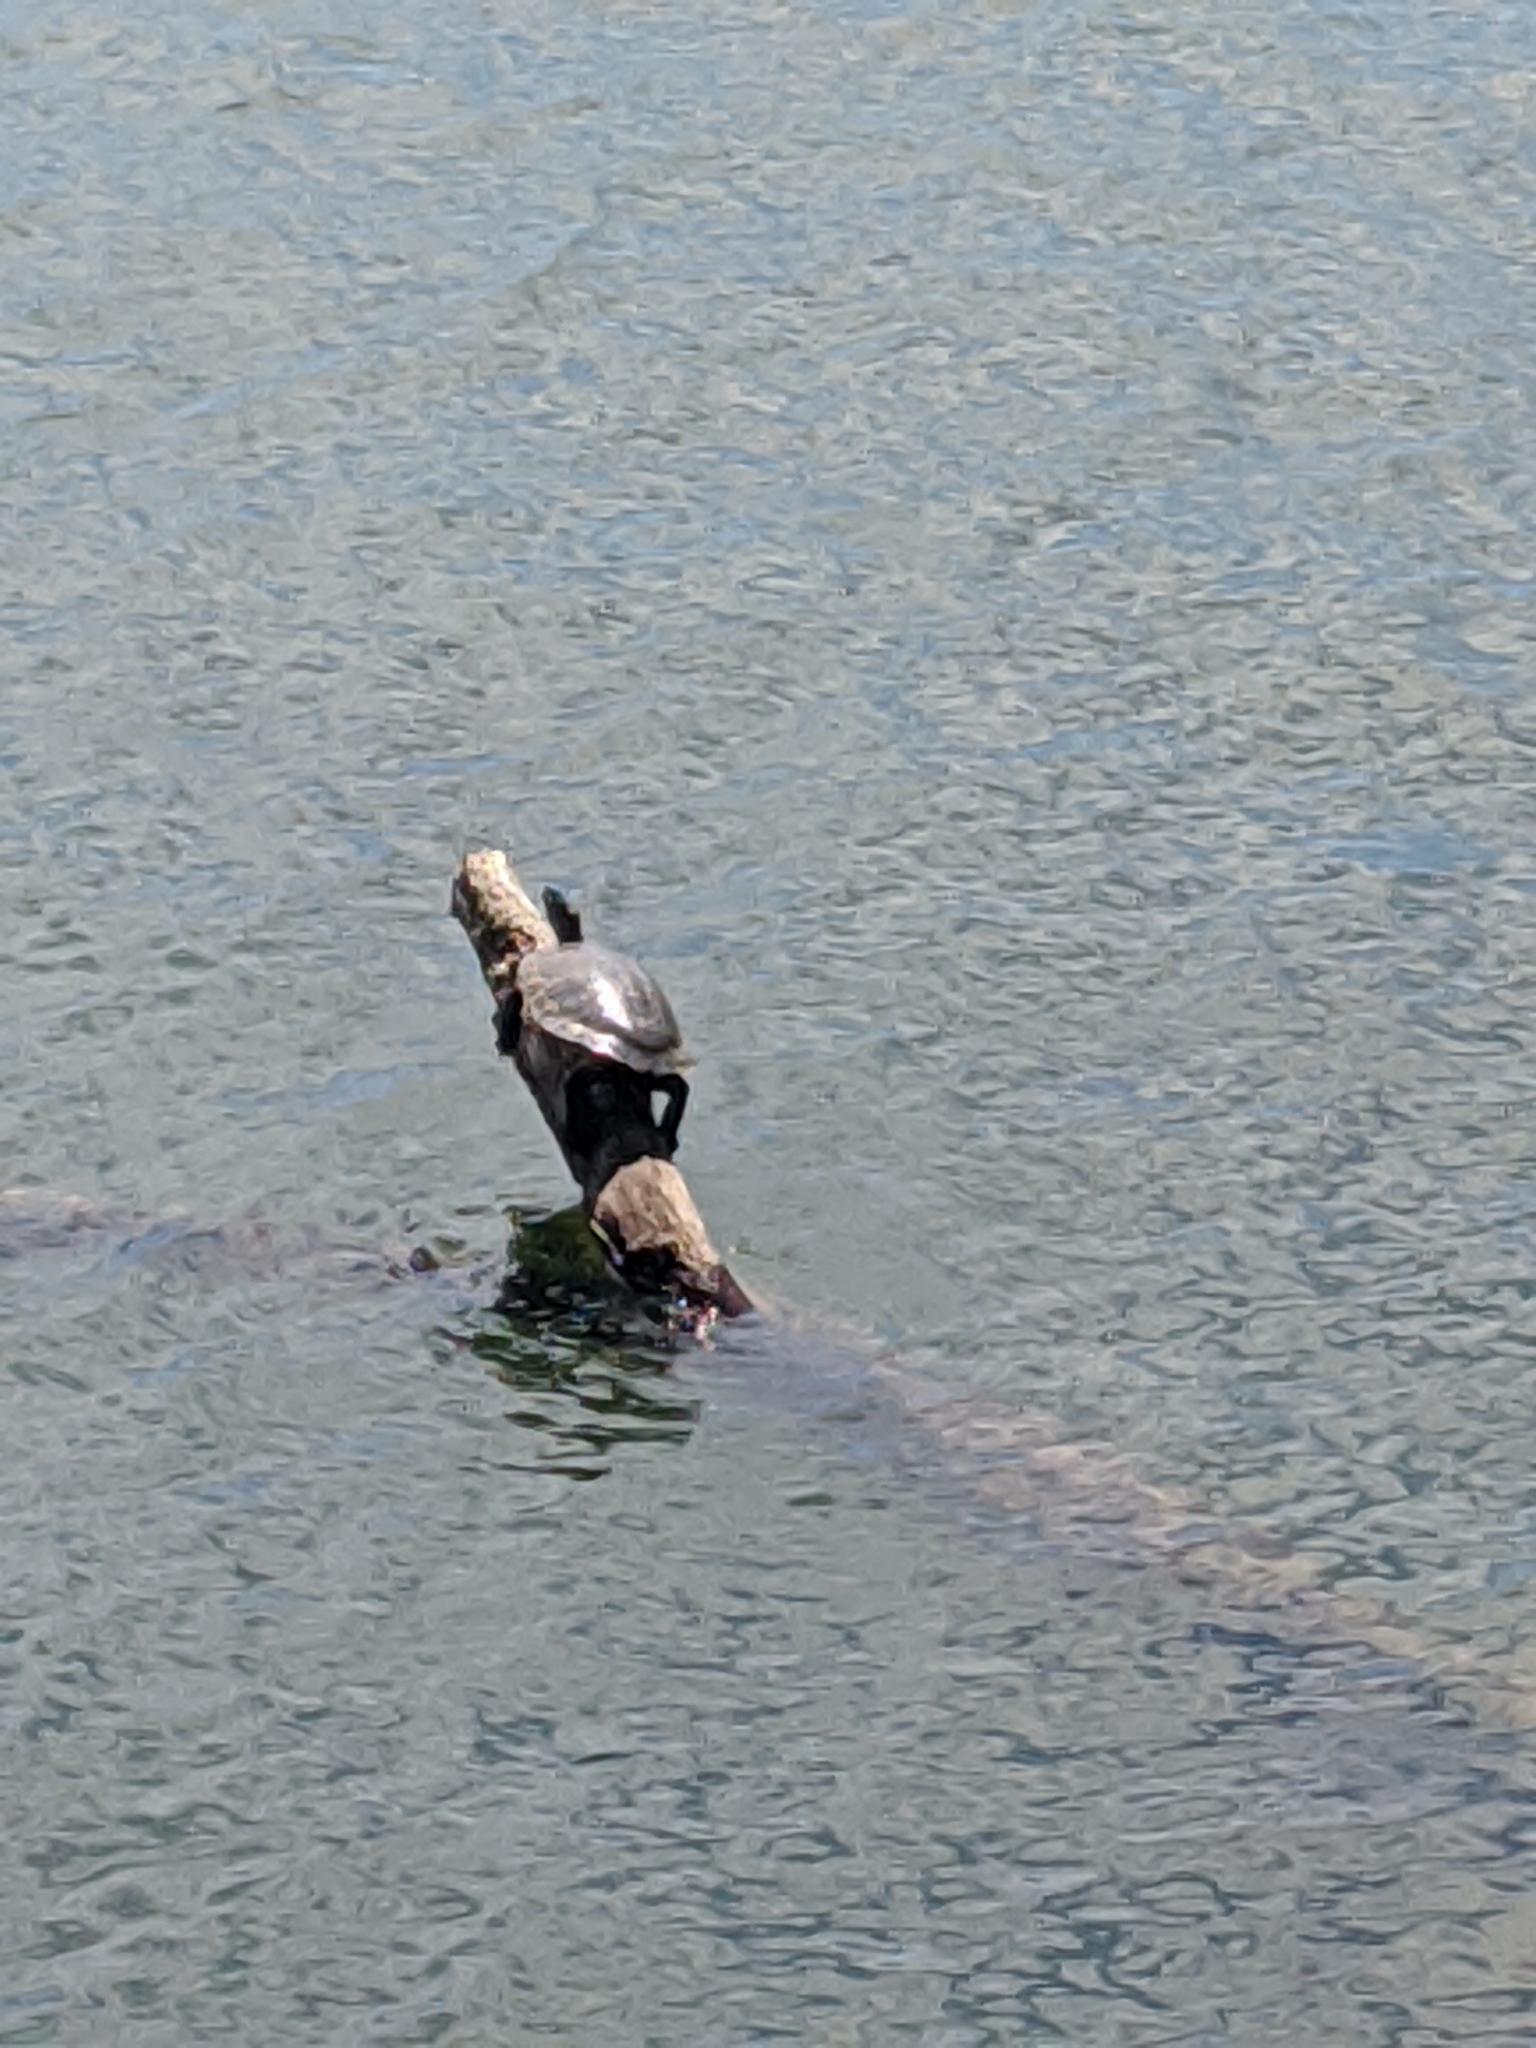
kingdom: Animalia
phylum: Chordata
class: Testudines
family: Emydidae
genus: Trachemys
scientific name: Trachemys scripta
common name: Slider
